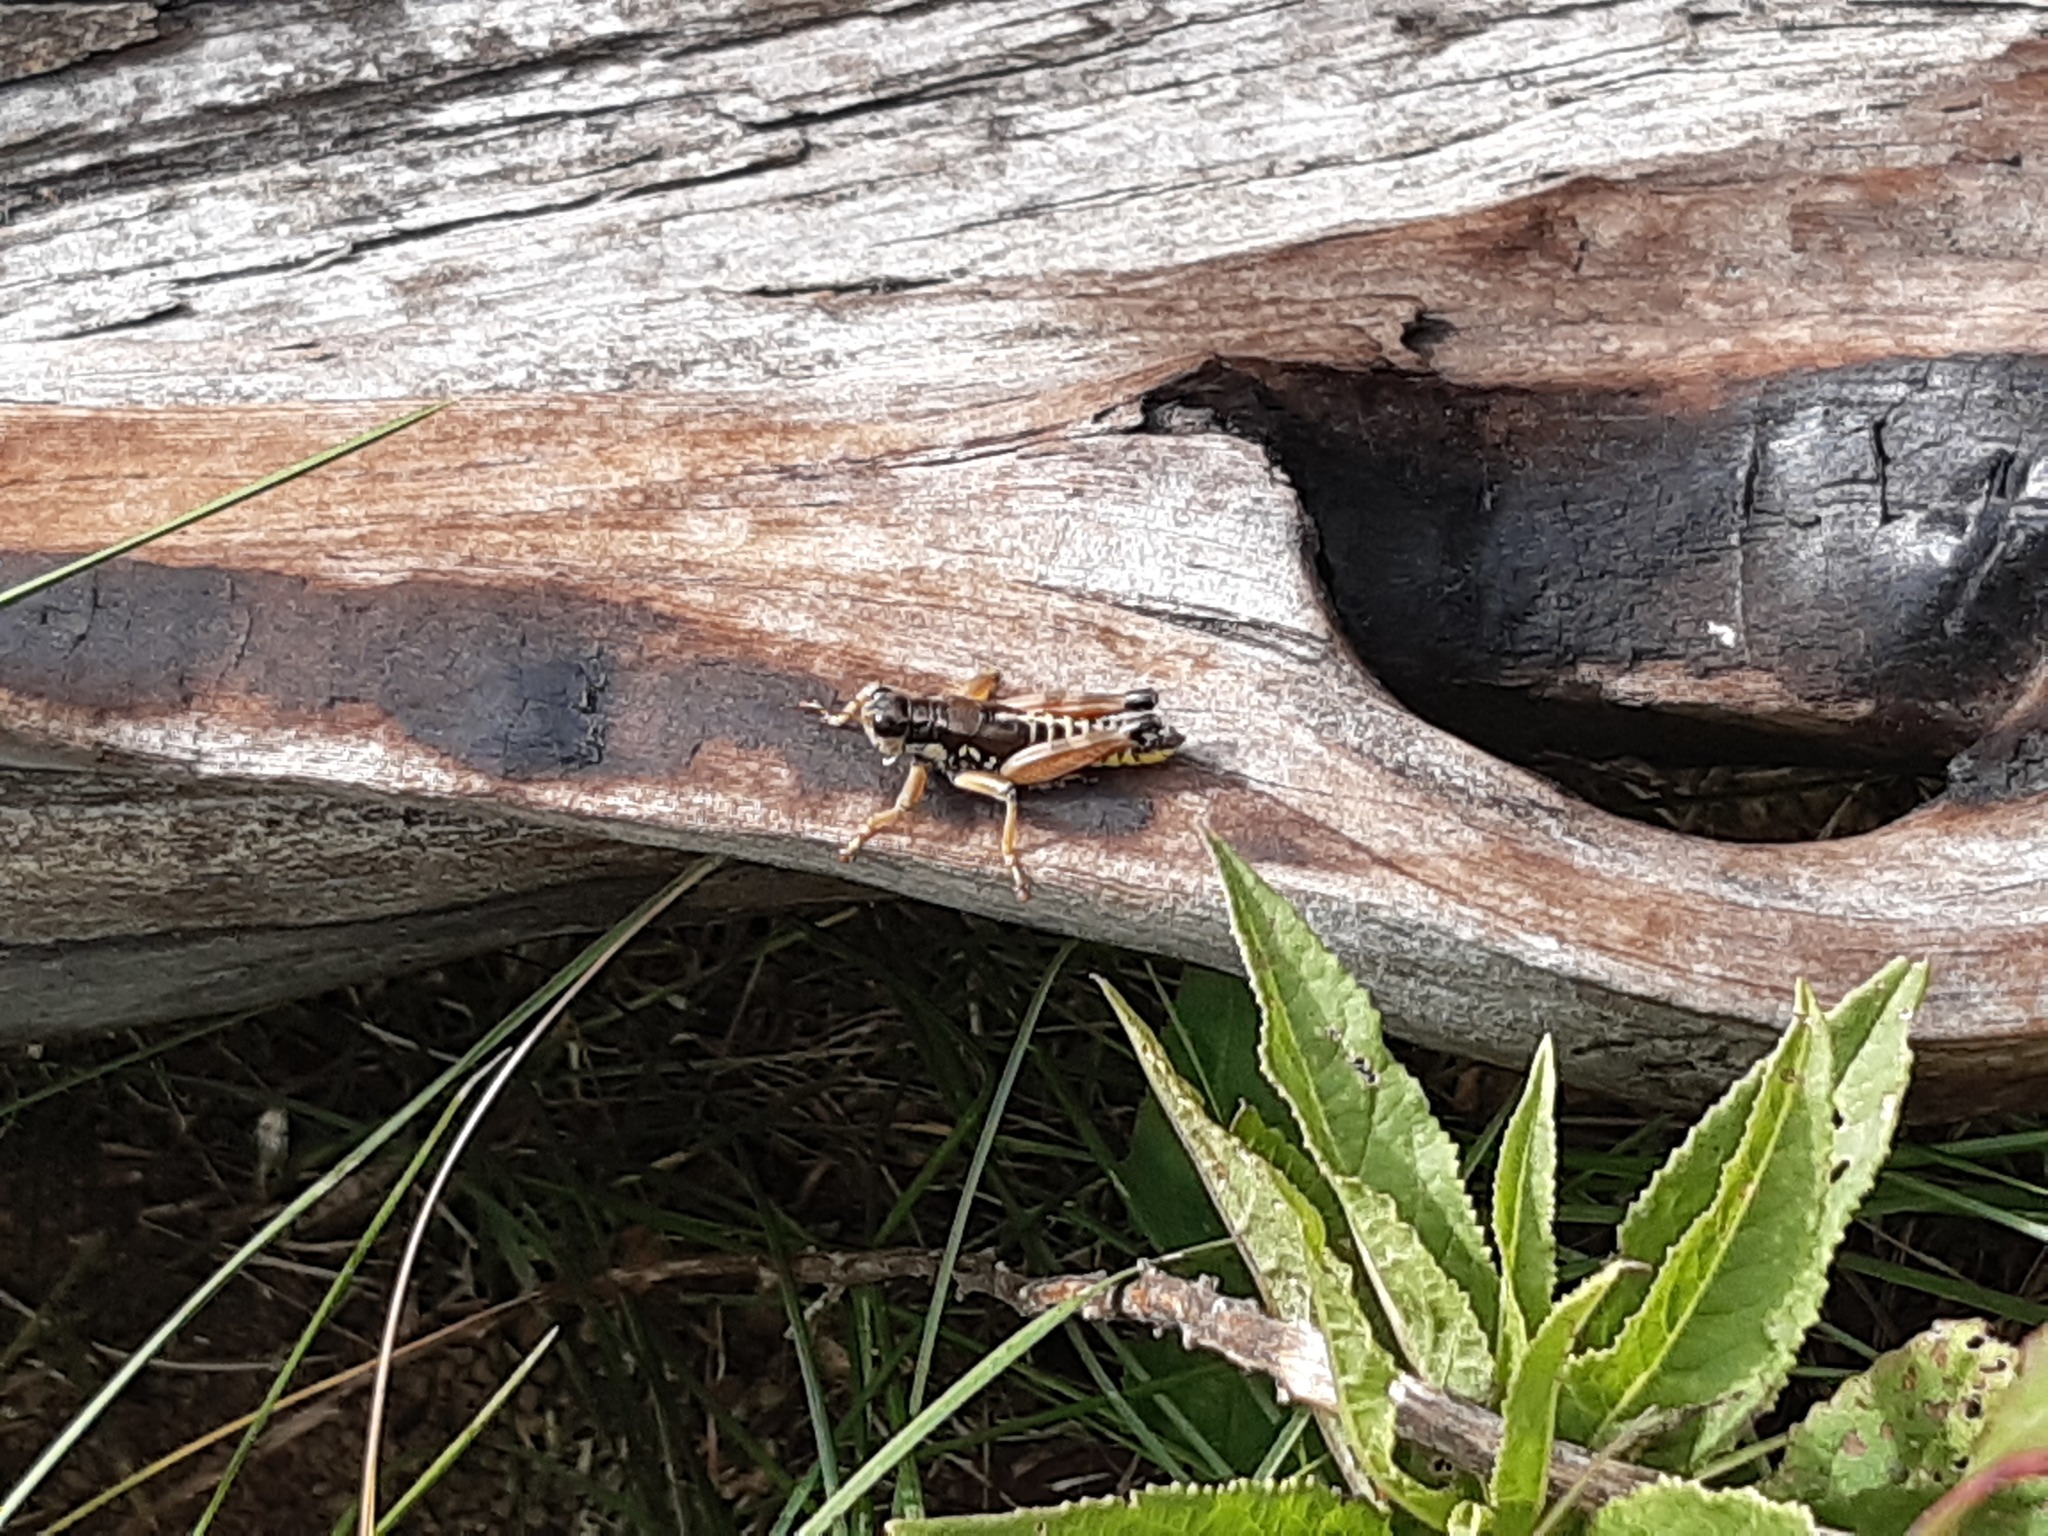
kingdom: Animalia
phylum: Arthropoda
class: Insecta
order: Orthoptera
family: Acrididae
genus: Podisma
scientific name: Podisma pedestris
